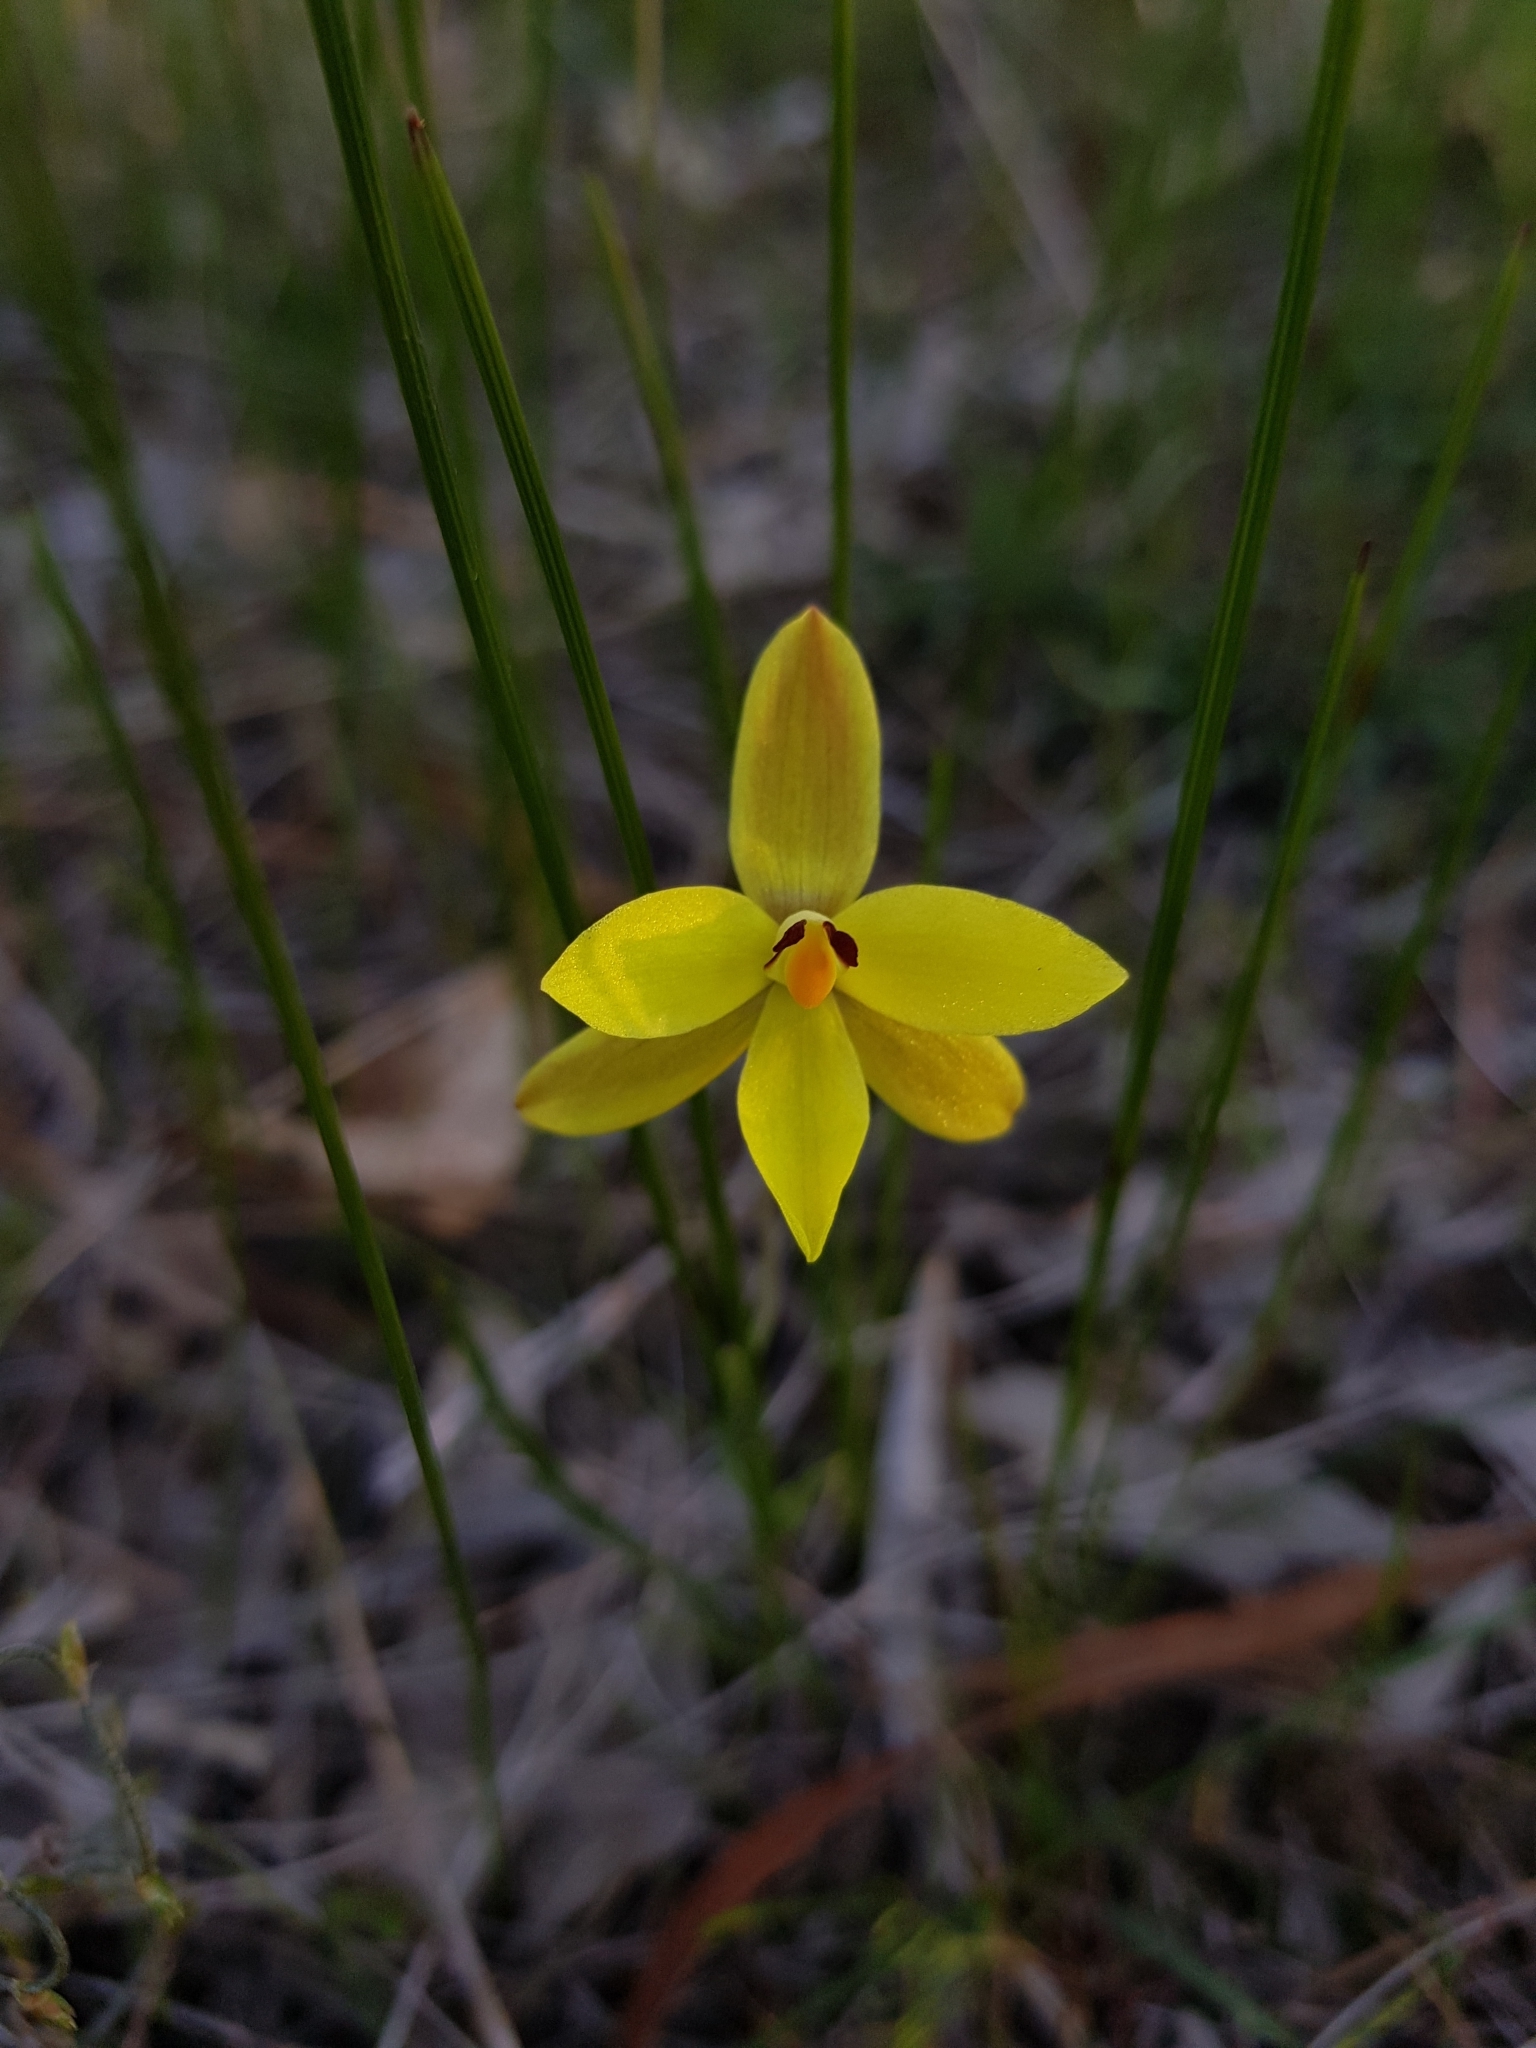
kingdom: Plantae
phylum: Tracheophyta
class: Liliopsida
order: Asparagales
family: Orchidaceae
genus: Thelymitra
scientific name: Thelymitra antennifera
